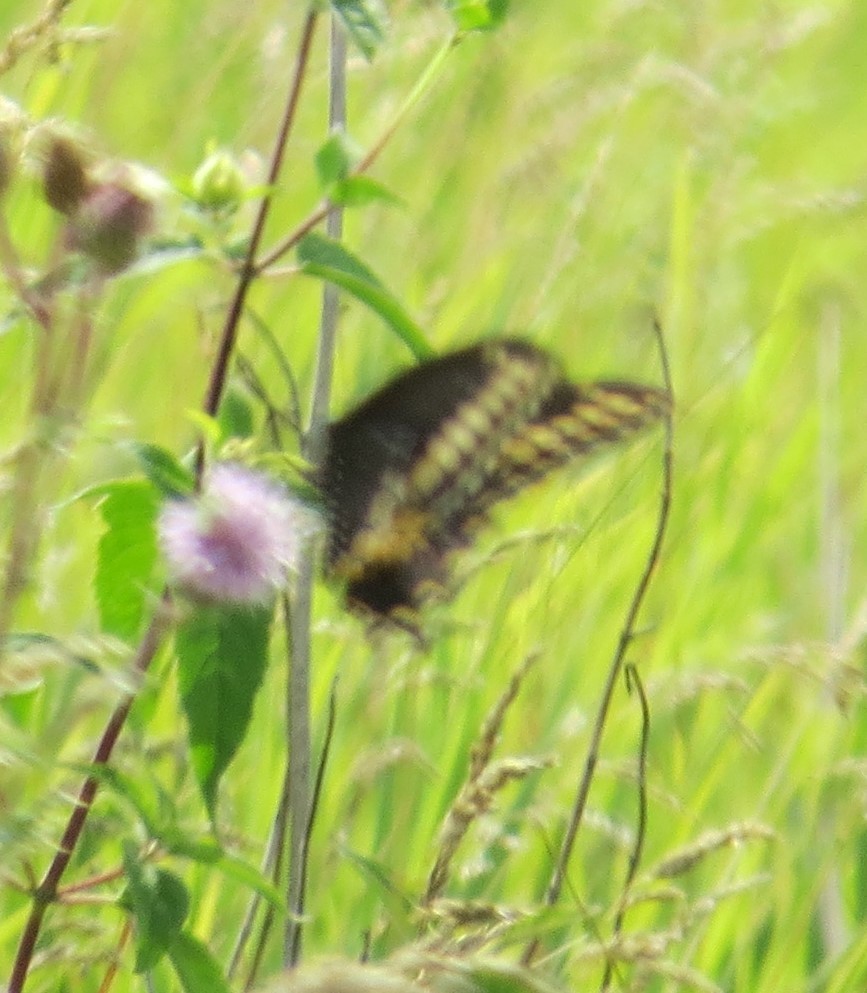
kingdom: Animalia
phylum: Arthropoda
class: Insecta
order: Lepidoptera
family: Papilionidae
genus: Papilio
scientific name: Papilio polyxenes
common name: Black swallowtail
